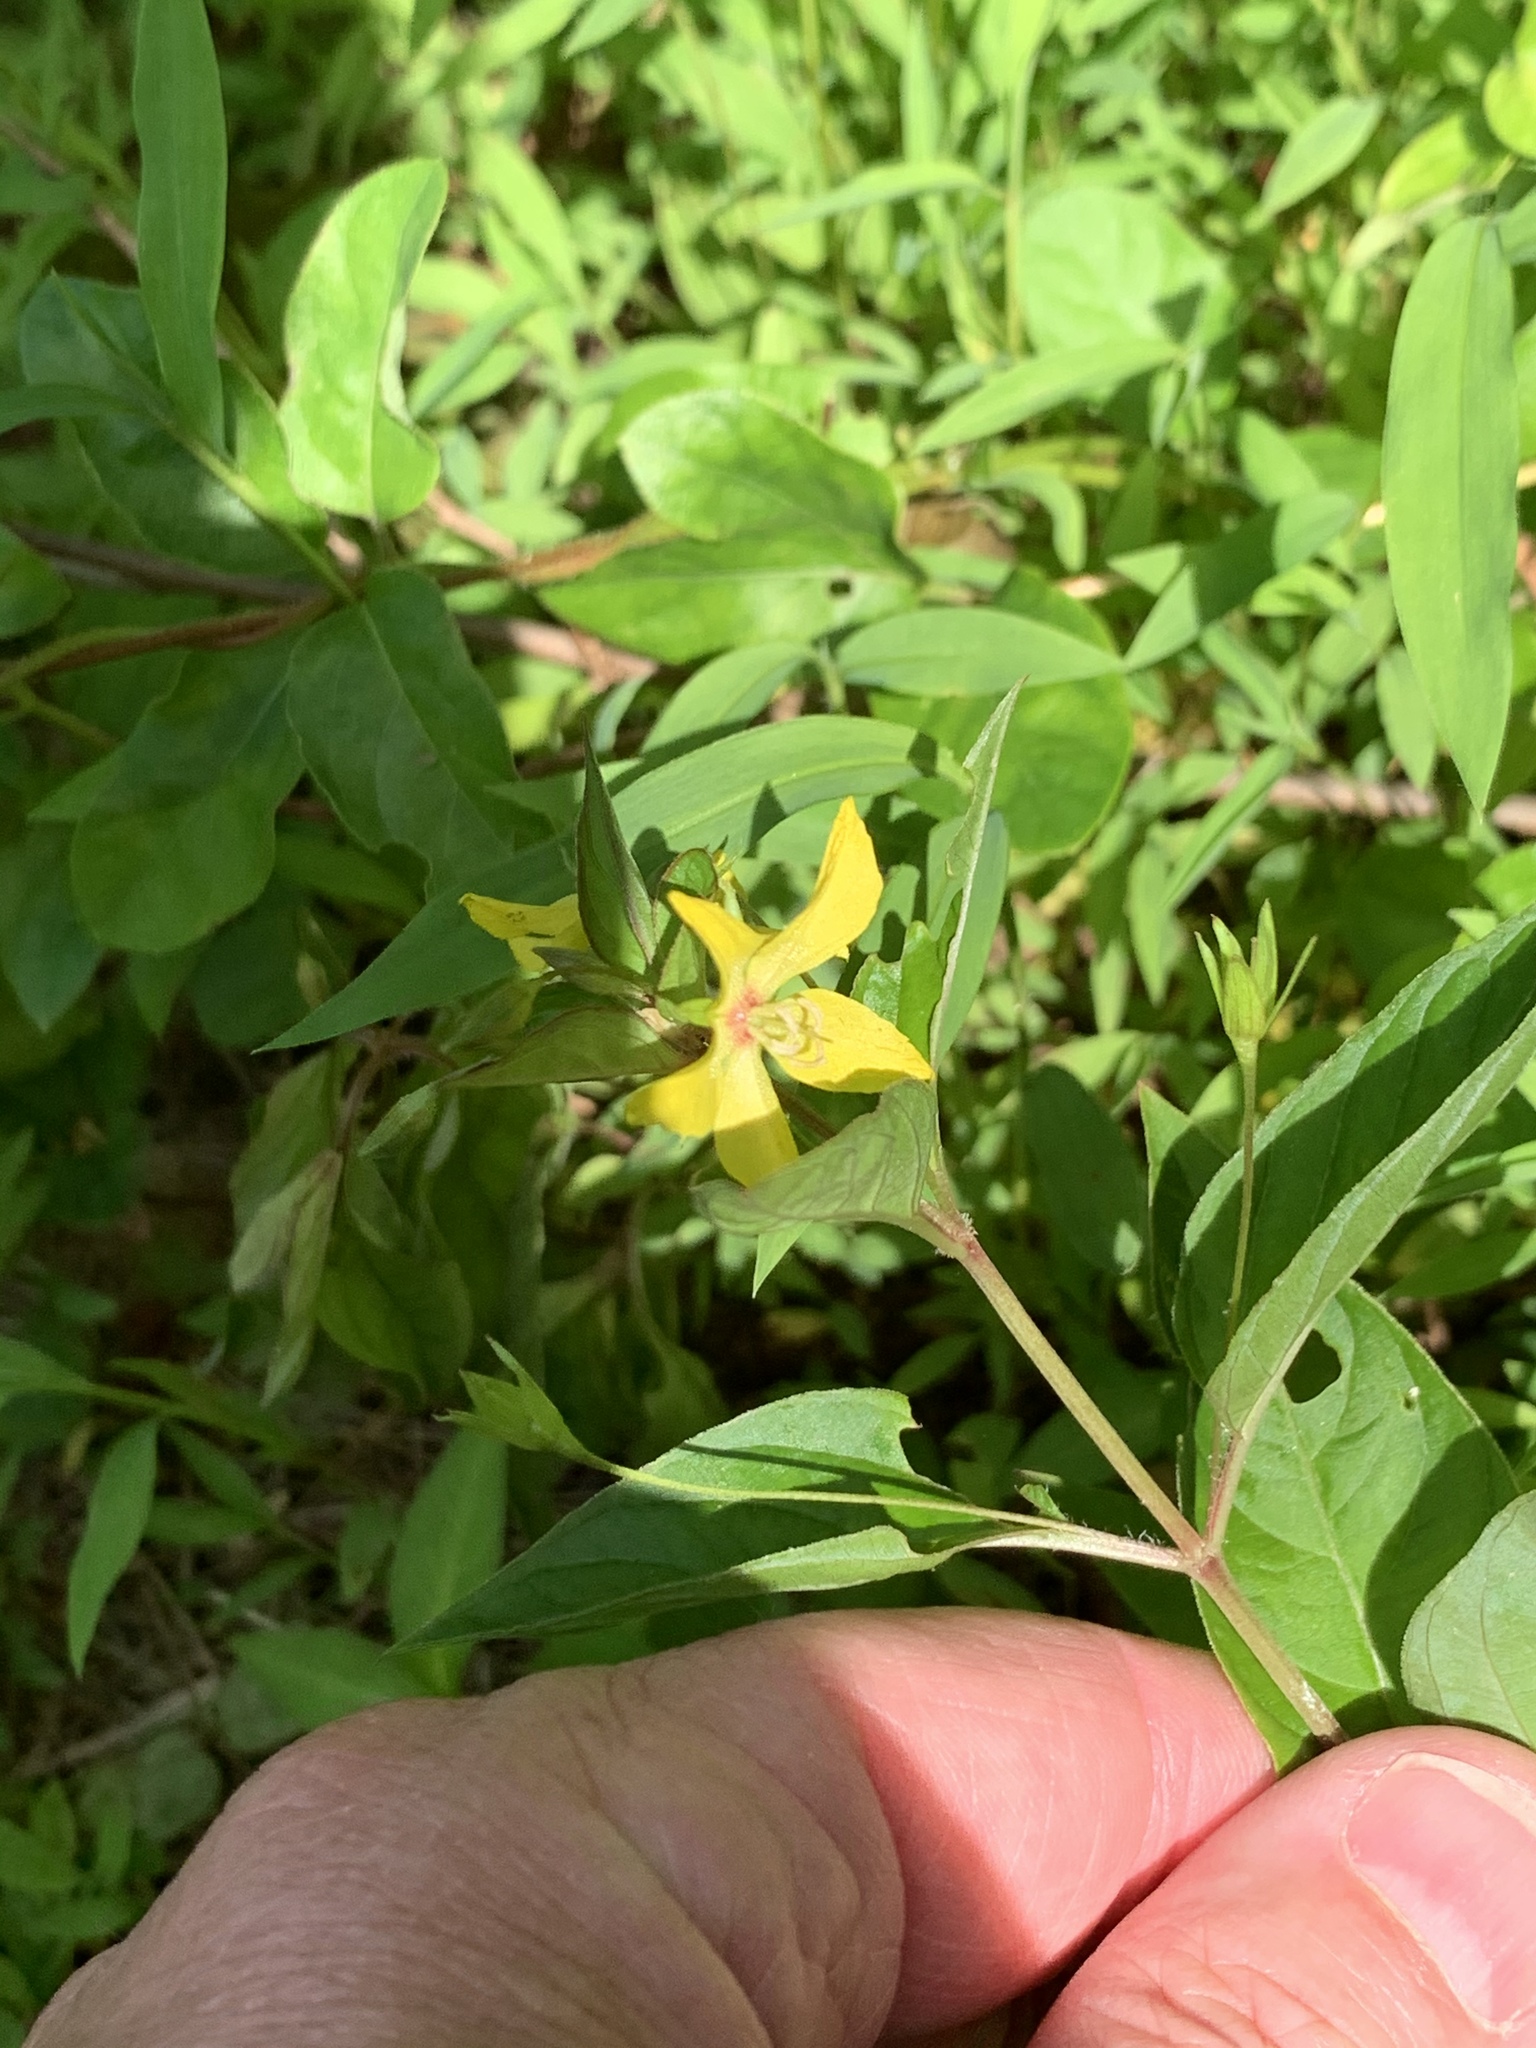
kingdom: Plantae
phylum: Tracheophyta
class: Magnoliopsida
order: Ericales
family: Primulaceae
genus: Lysimachia
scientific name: Lysimachia ciliata
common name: Fringed loosestrife
